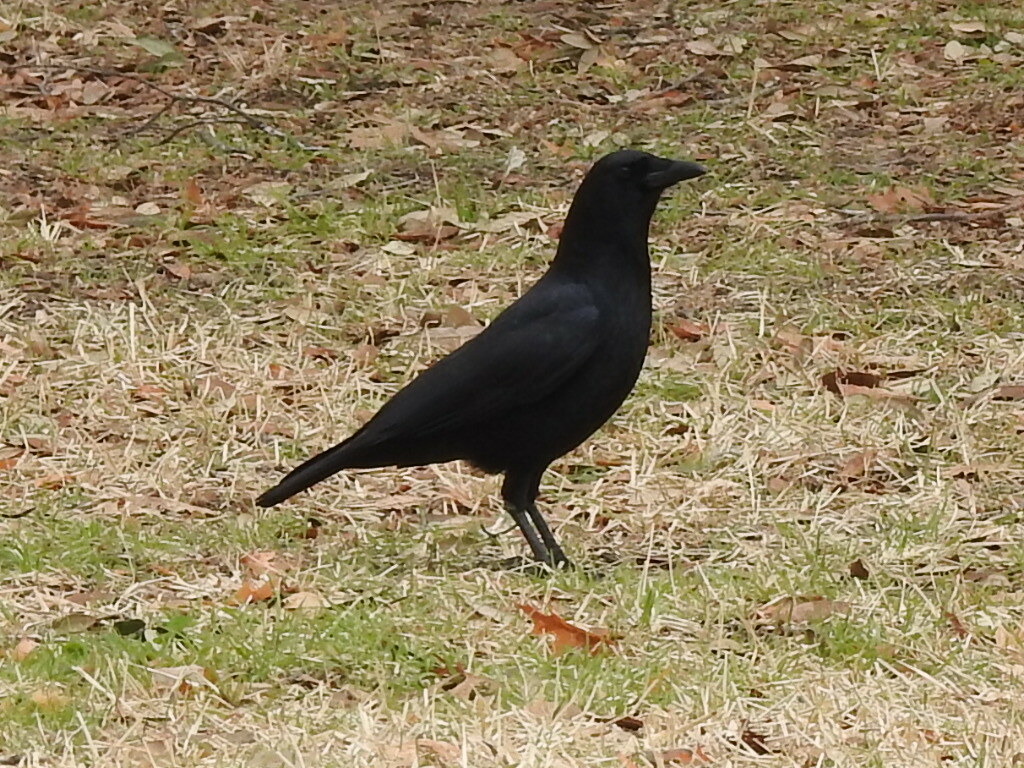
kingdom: Animalia
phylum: Chordata
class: Aves
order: Passeriformes
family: Corvidae
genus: Corvus
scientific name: Corvus brachyrhynchos
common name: American crow
